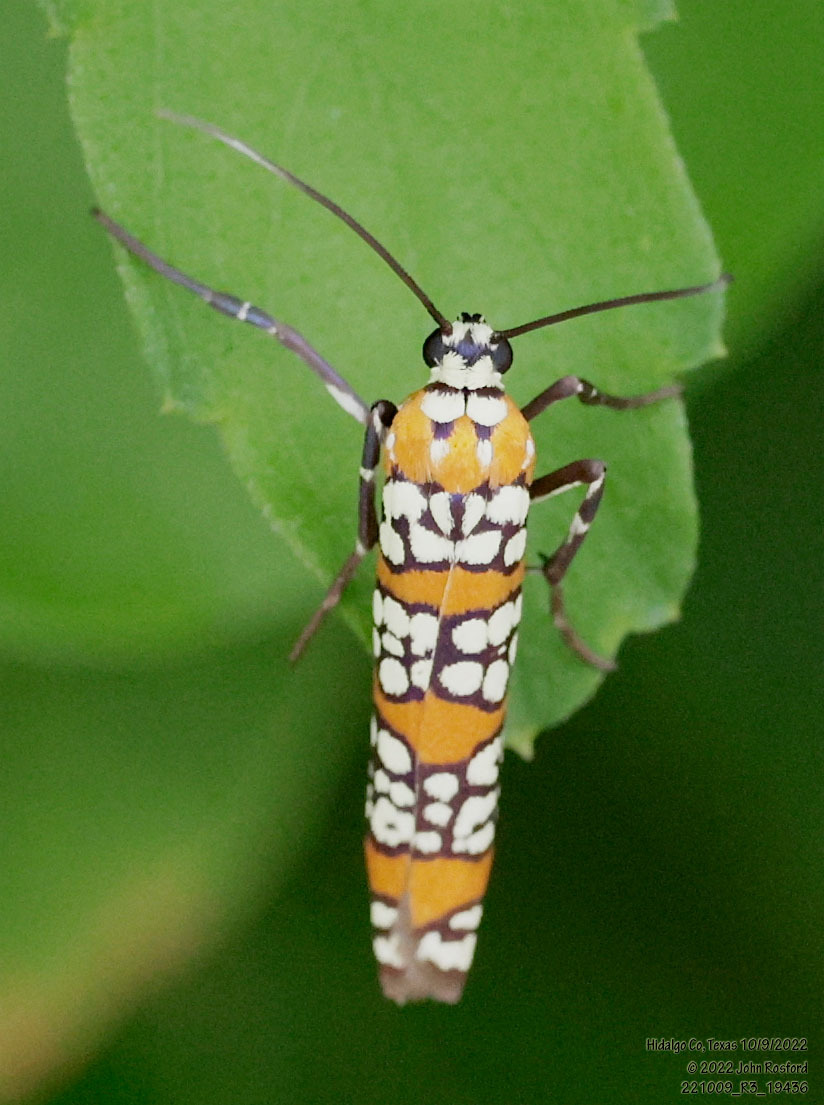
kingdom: Animalia
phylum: Arthropoda
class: Insecta
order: Lepidoptera
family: Attevidae
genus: Atteva
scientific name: Atteva punctella
